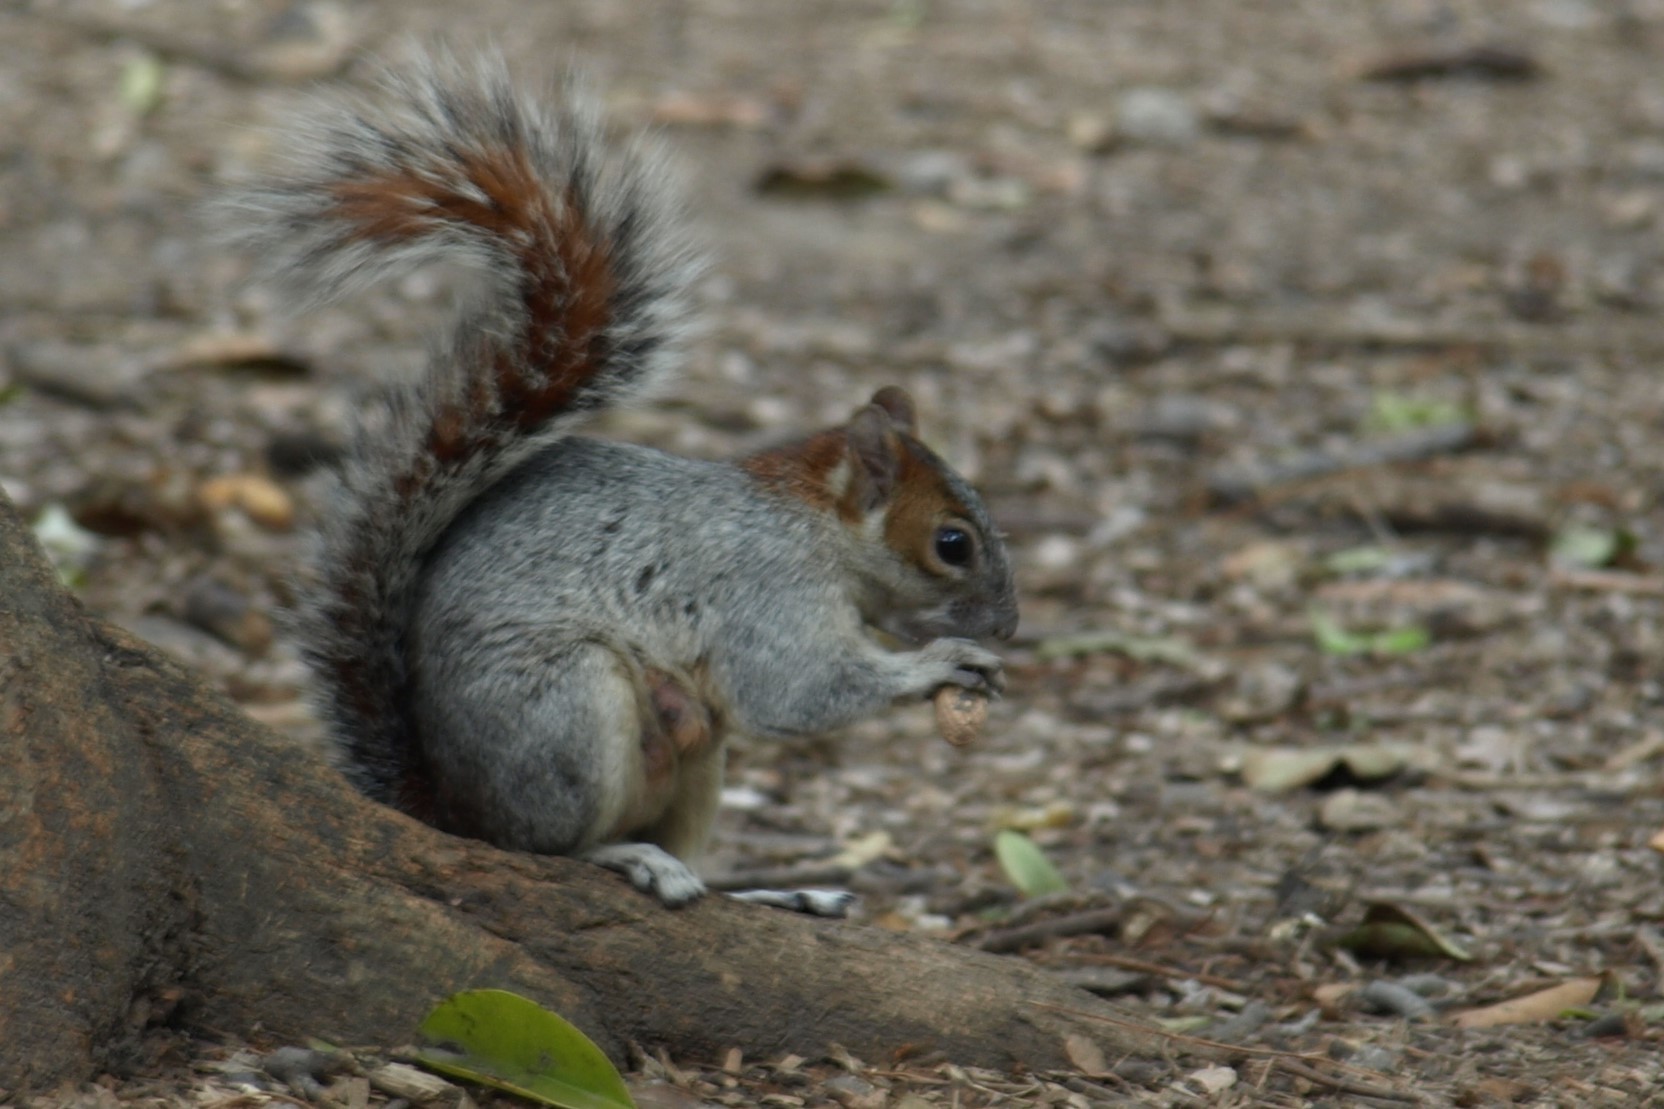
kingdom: Animalia
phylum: Chordata
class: Mammalia
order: Rodentia
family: Sciuridae
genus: Sciurus
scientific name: Sciurus aureogaster
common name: Red-bellied squirrel
